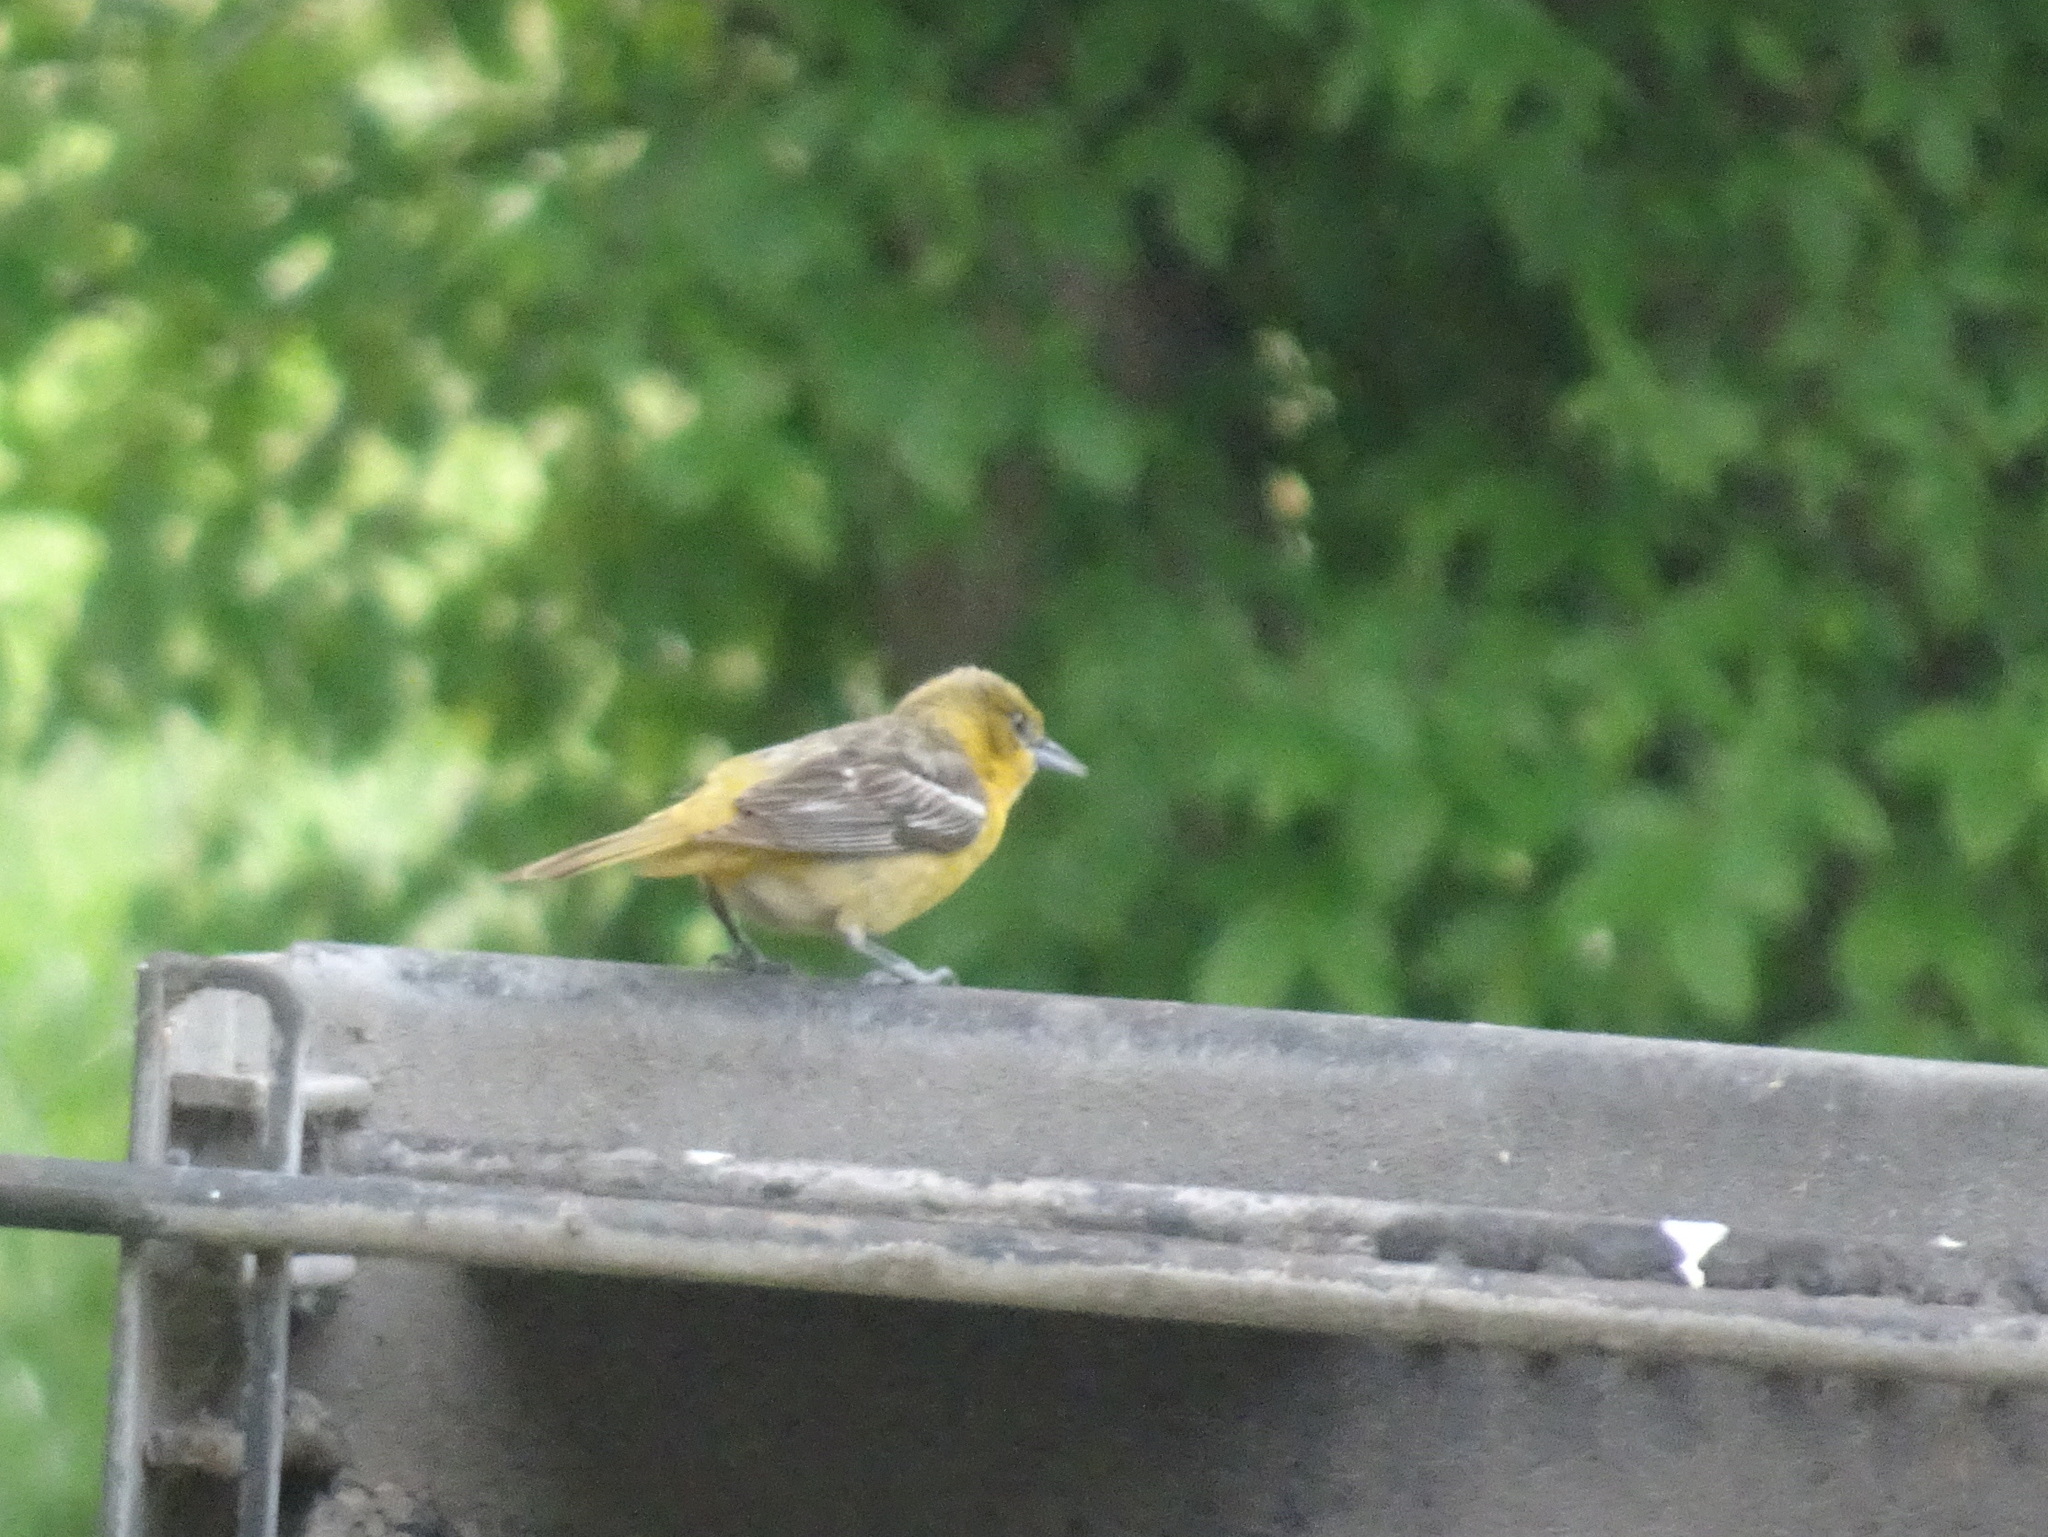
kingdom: Animalia
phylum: Chordata
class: Aves
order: Passeriformes
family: Icteridae
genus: Icterus
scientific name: Icterus galbula
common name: Baltimore oriole
